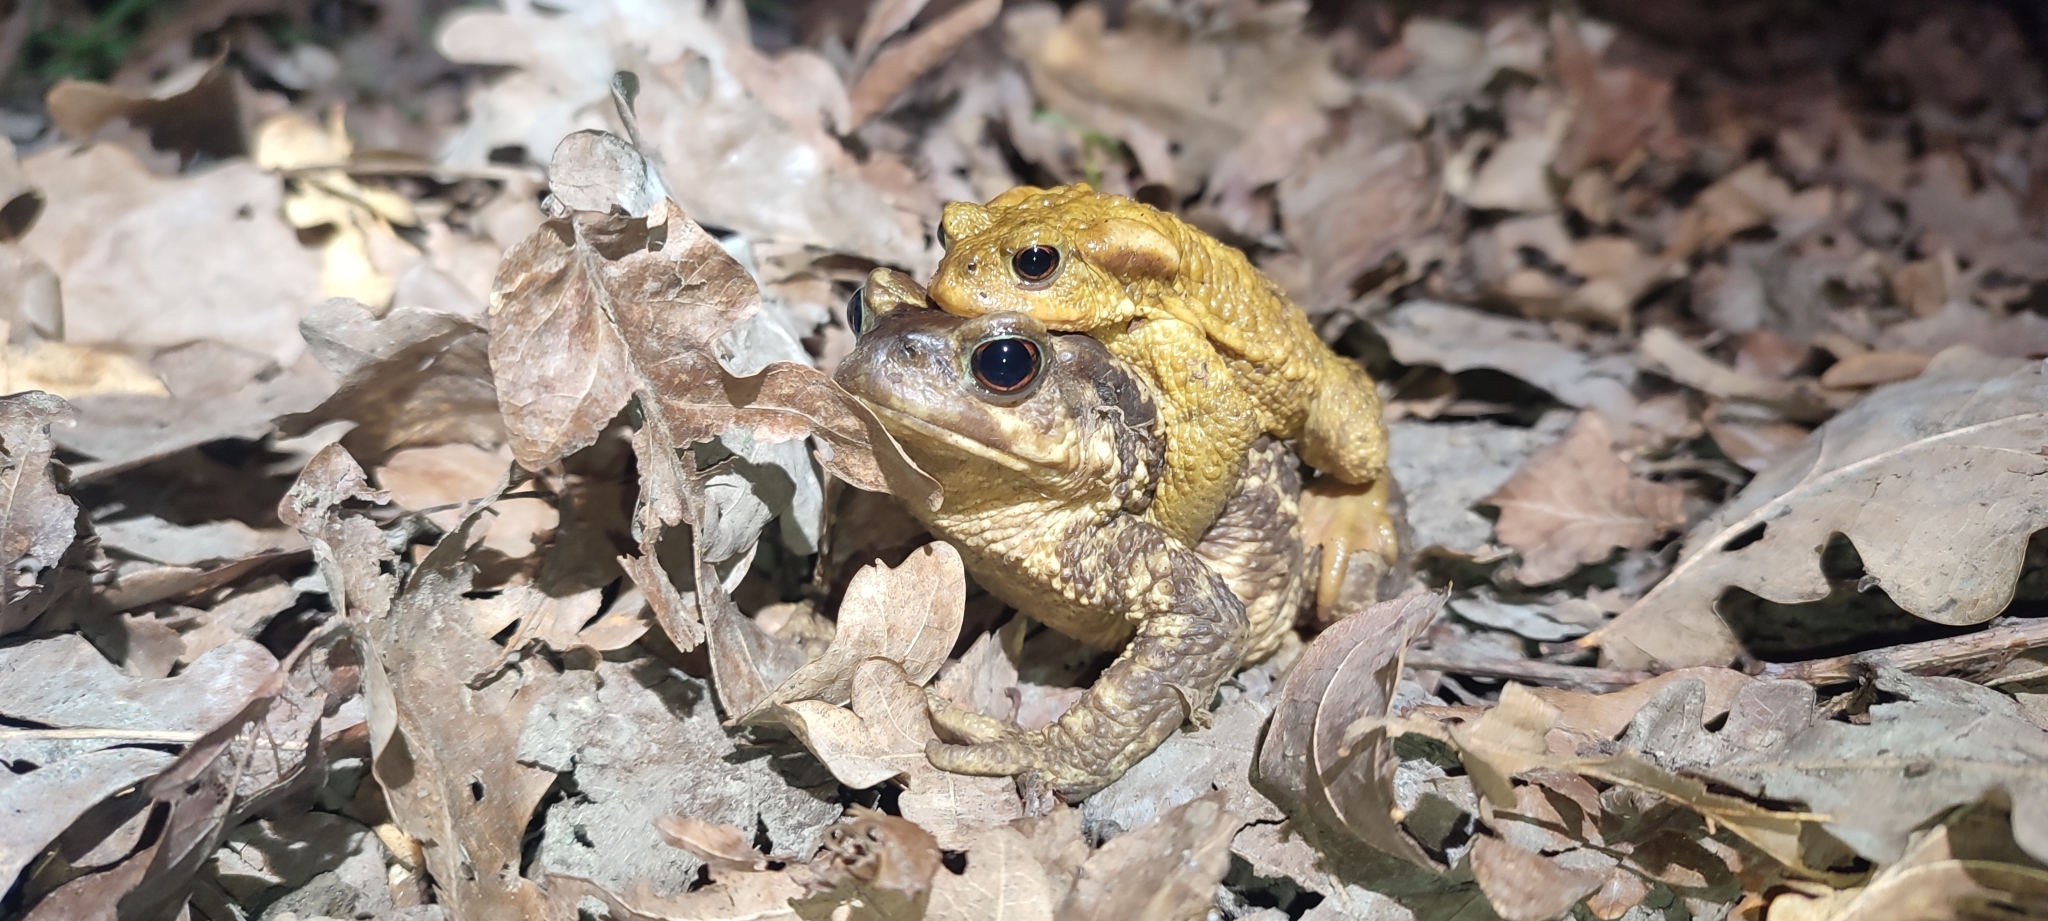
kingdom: Animalia
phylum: Chordata
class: Amphibia
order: Anura
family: Bufonidae
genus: Bufo
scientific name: Bufo spinosus
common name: Western common toad
